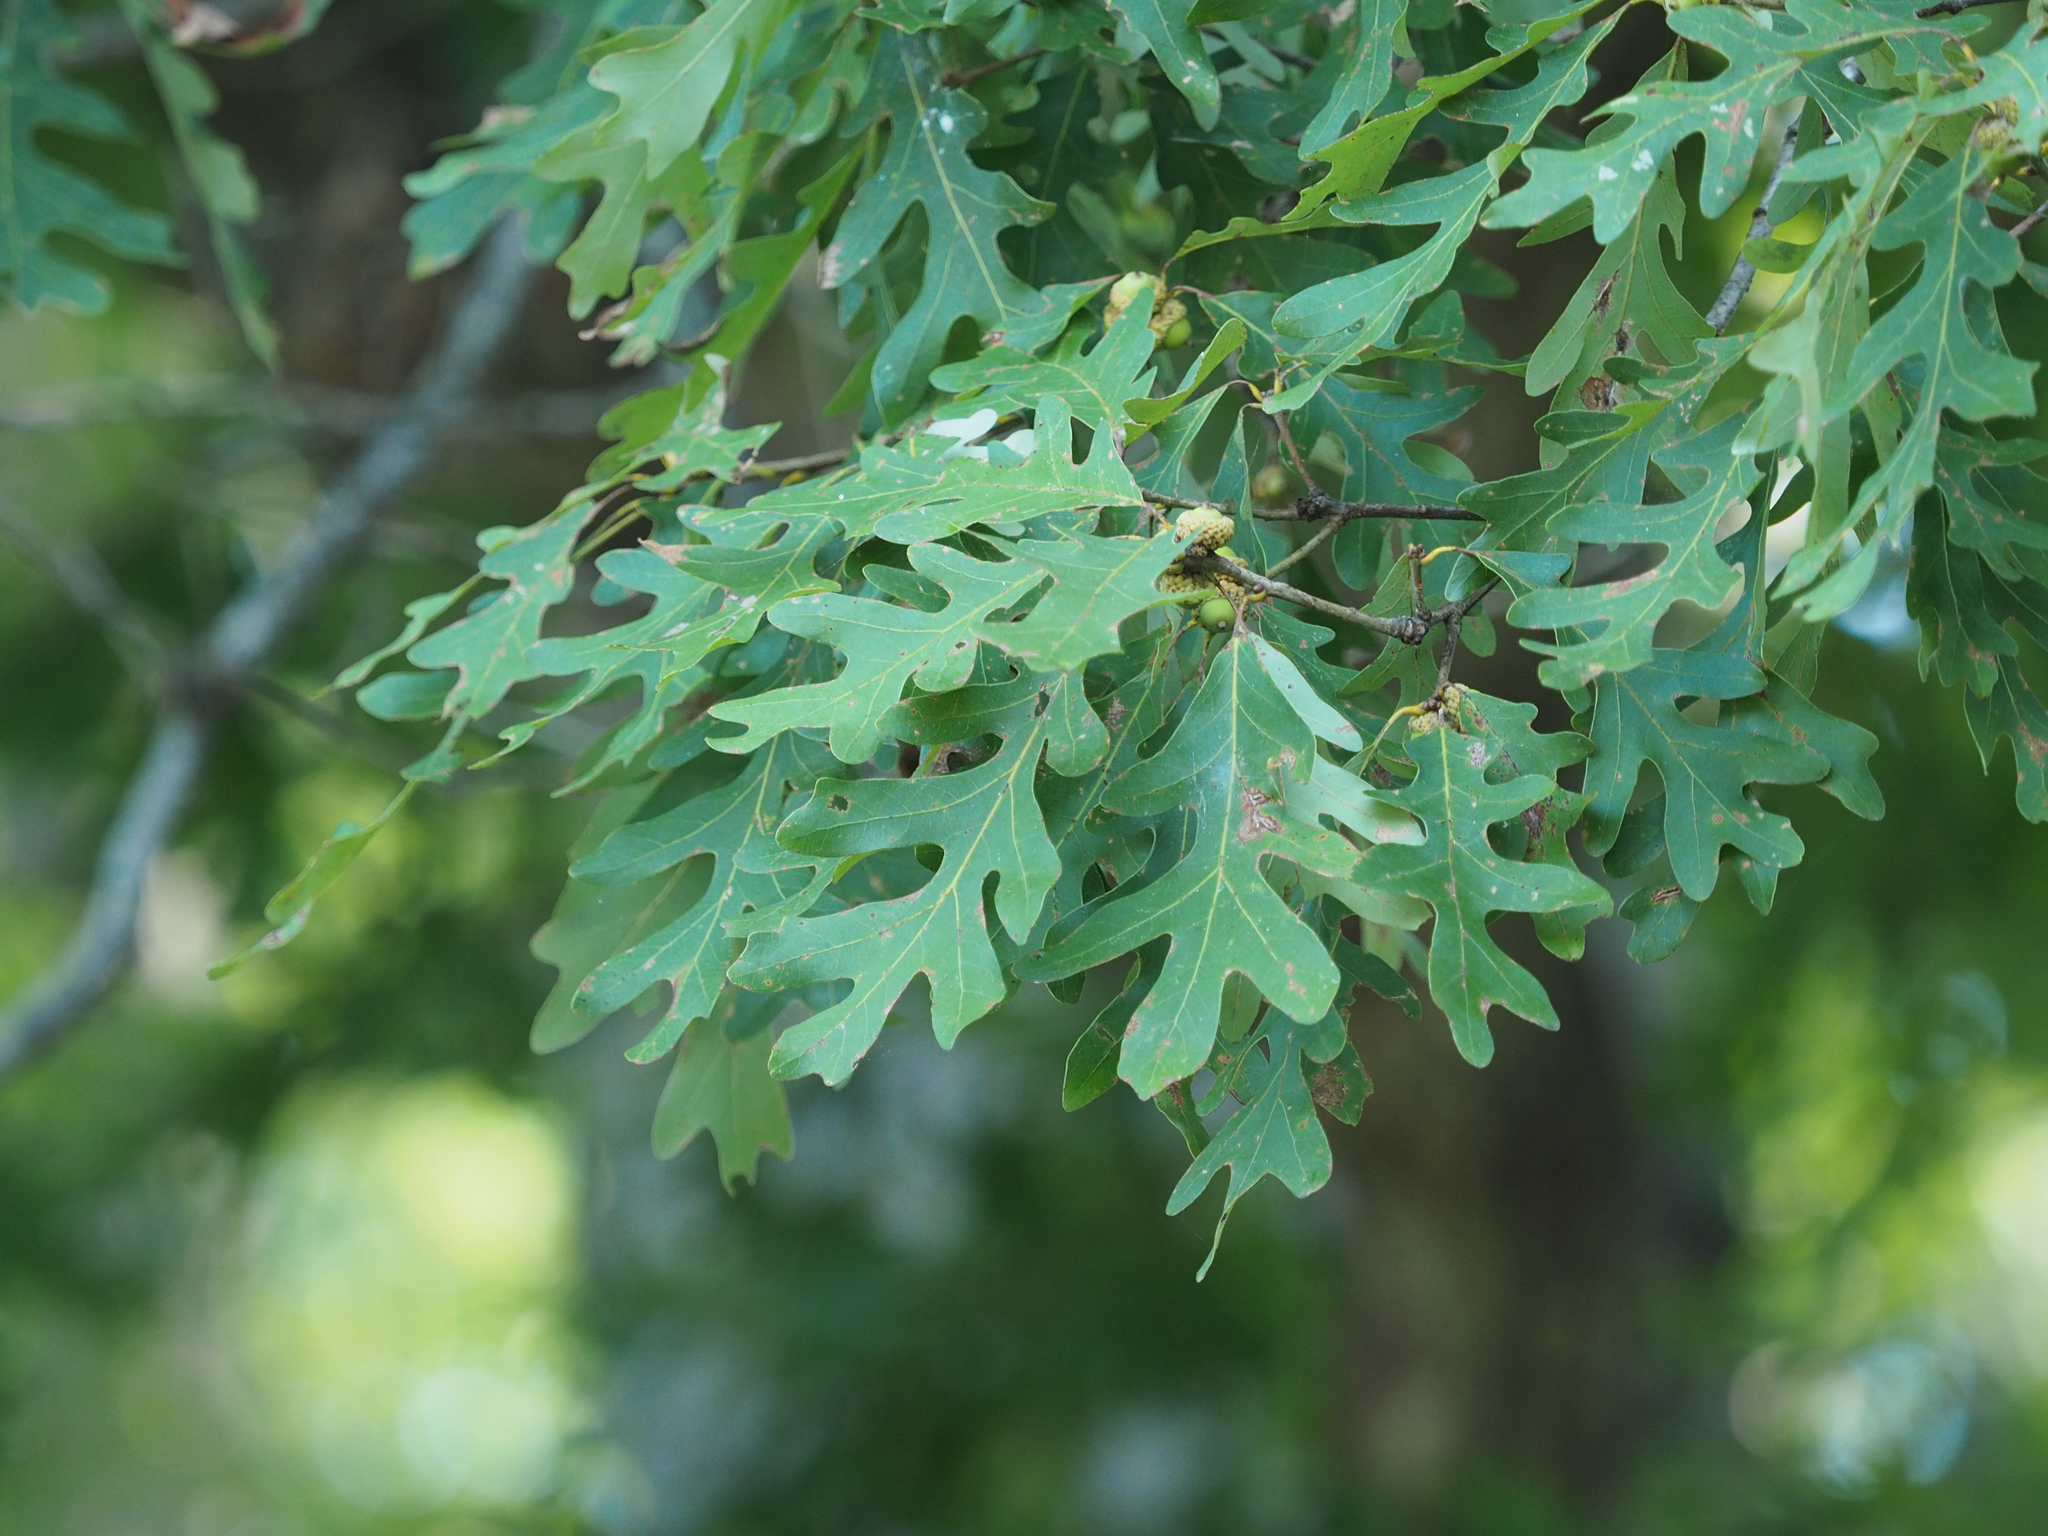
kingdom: Plantae
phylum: Tracheophyta
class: Magnoliopsida
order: Fagales
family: Fagaceae
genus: Quercus
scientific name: Quercus alba
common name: White oak
